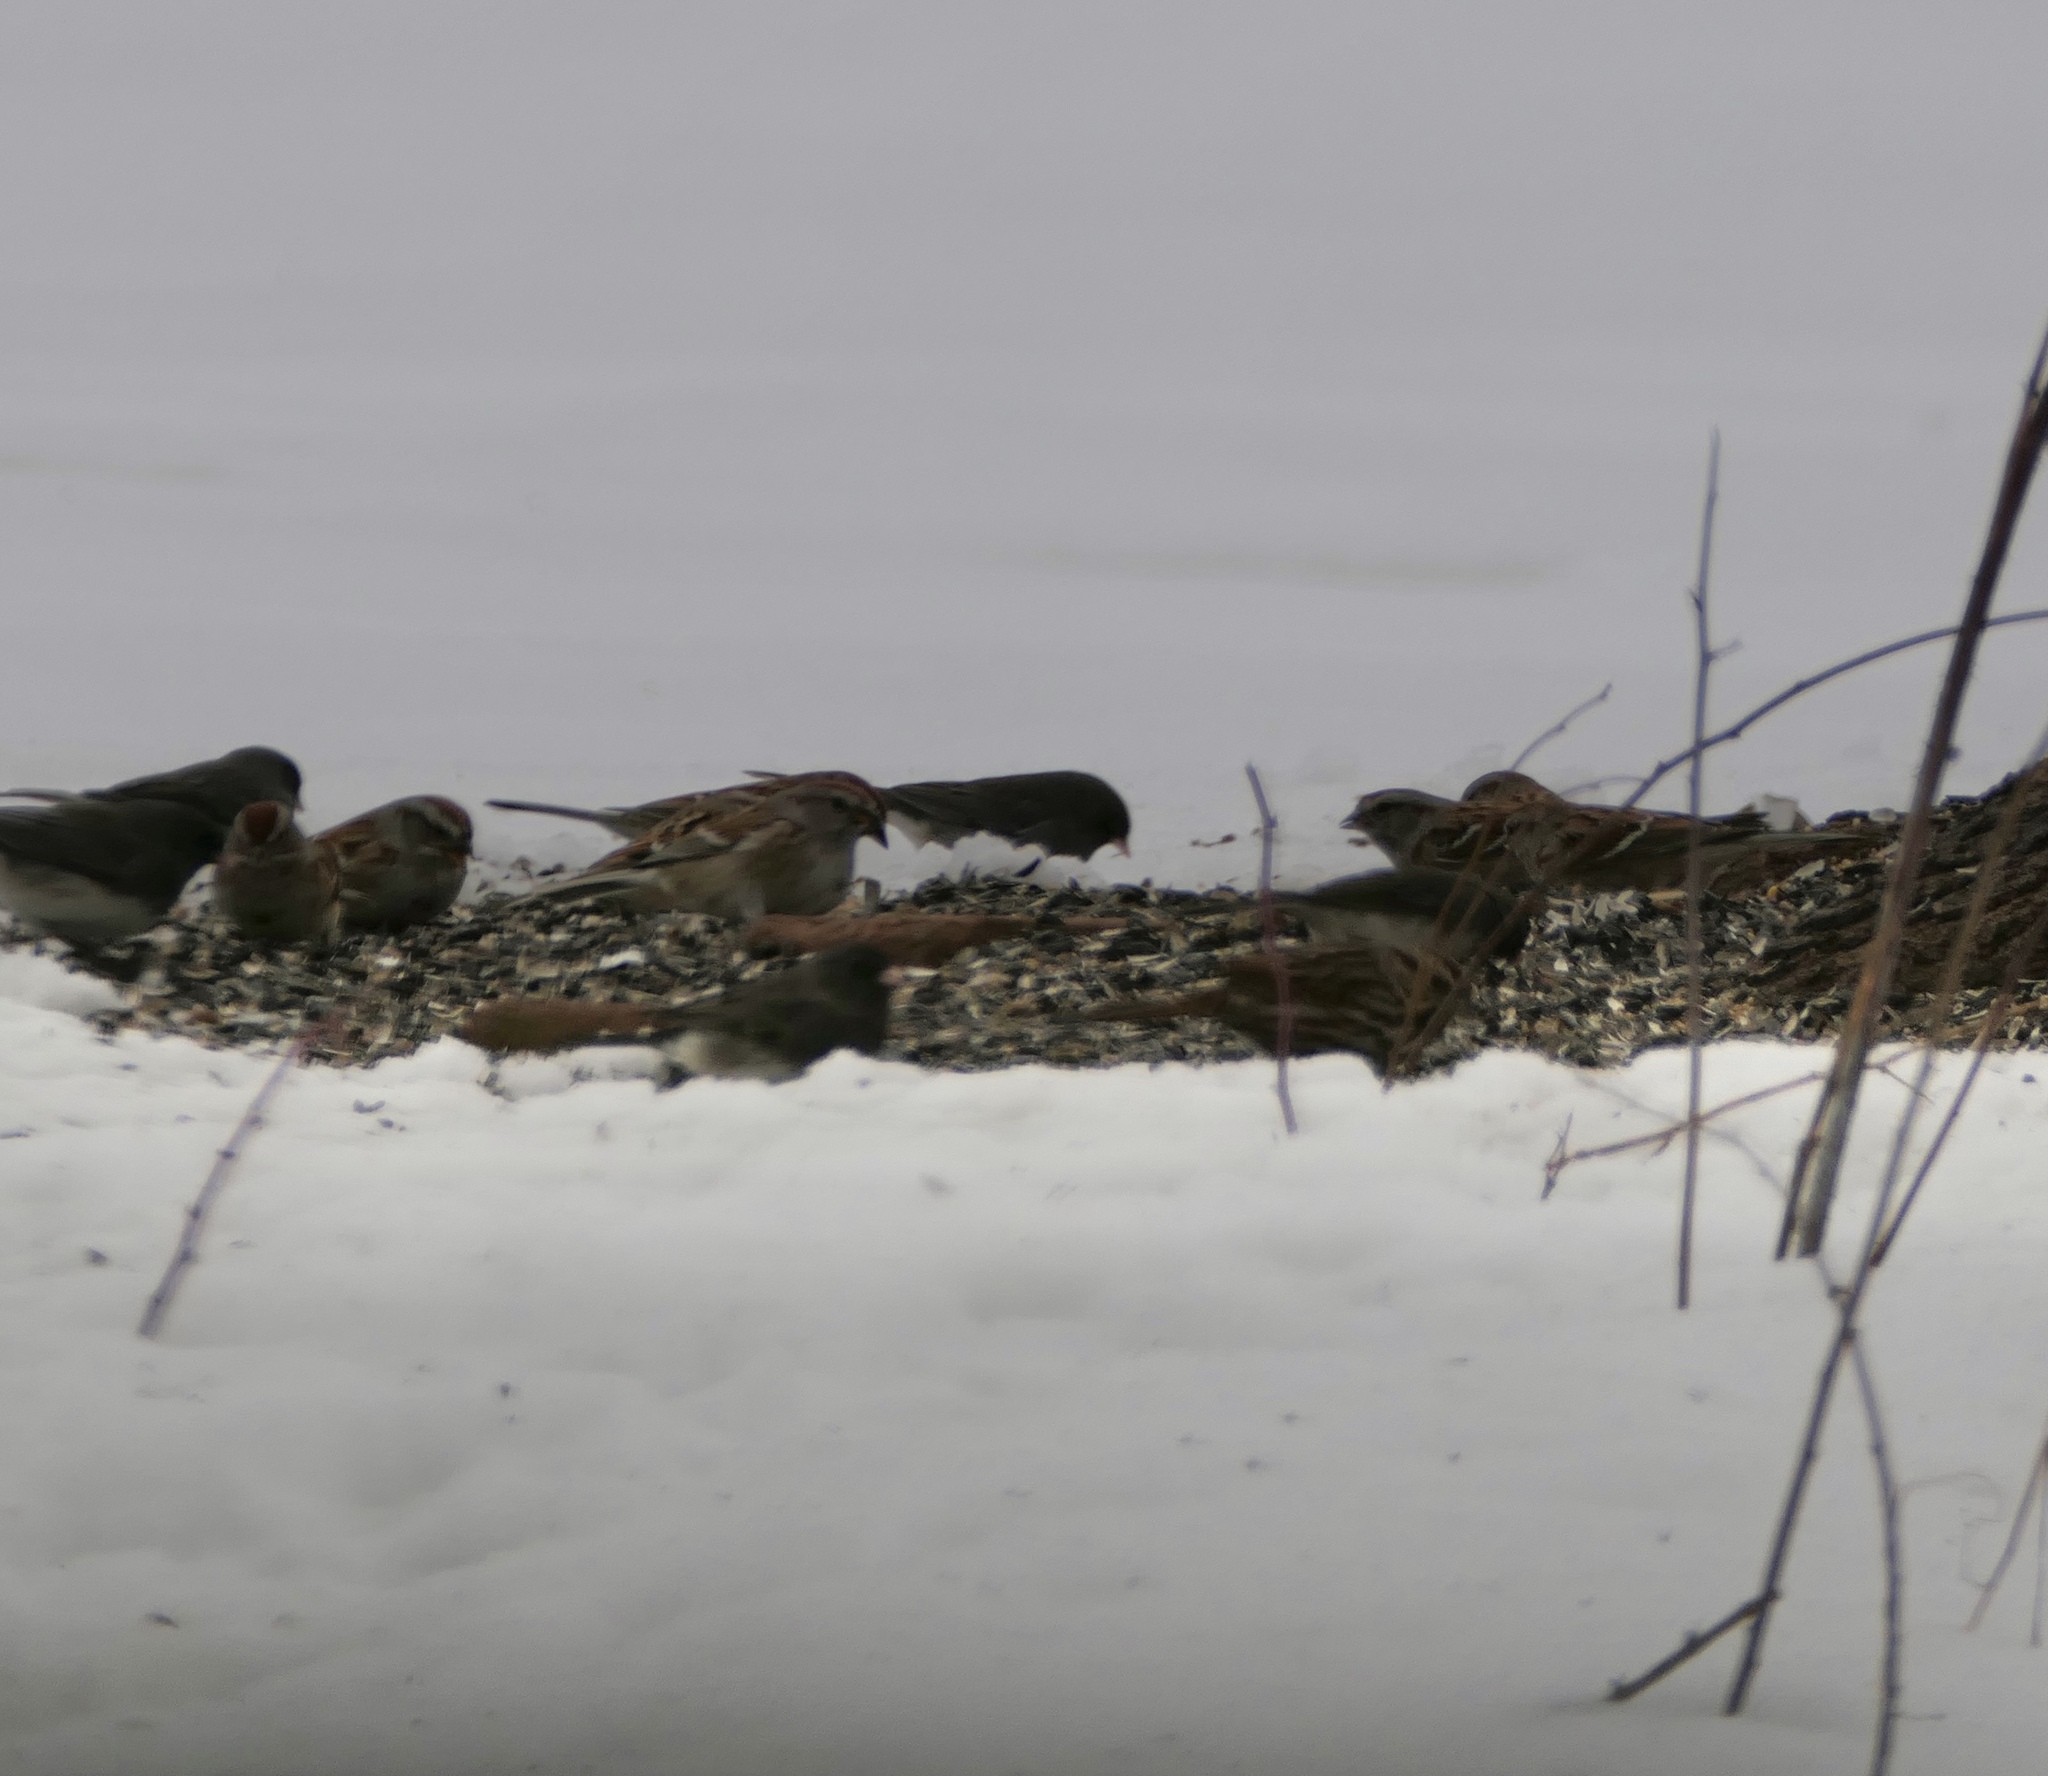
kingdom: Animalia
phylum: Chordata
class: Aves
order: Passeriformes
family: Passerellidae
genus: Spizelloides
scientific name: Spizelloides arborea
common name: American tree sparrow
